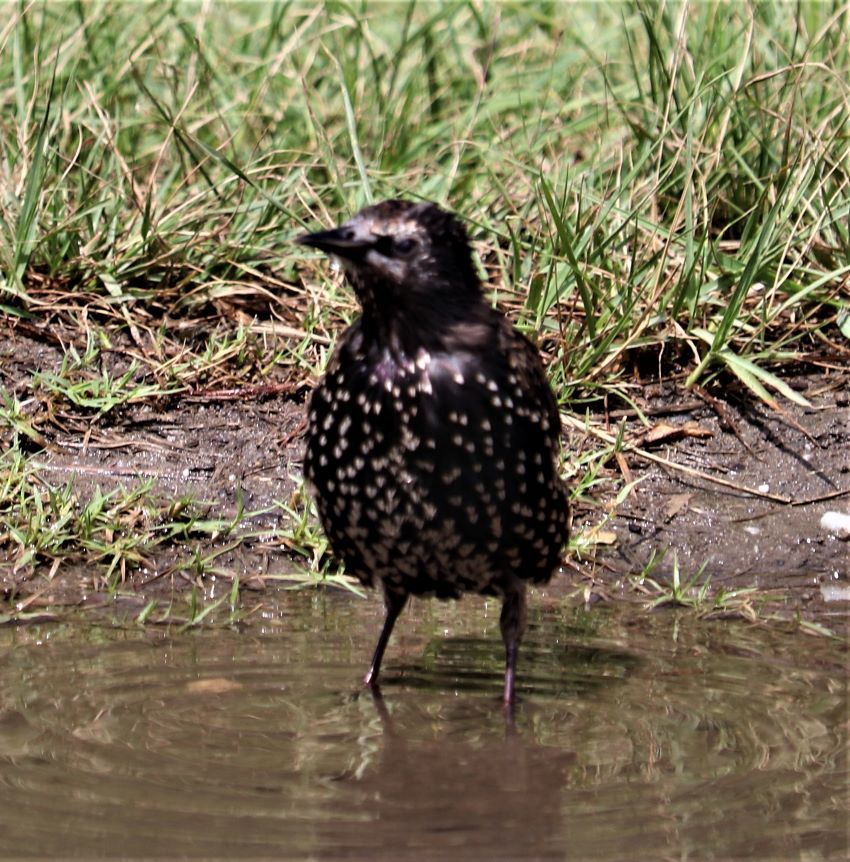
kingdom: Animalia
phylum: Chordata
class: Aves
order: Passeriformes
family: Sturnidae
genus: Sturnus
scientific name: Sturnus vulgaris
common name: Common starling
